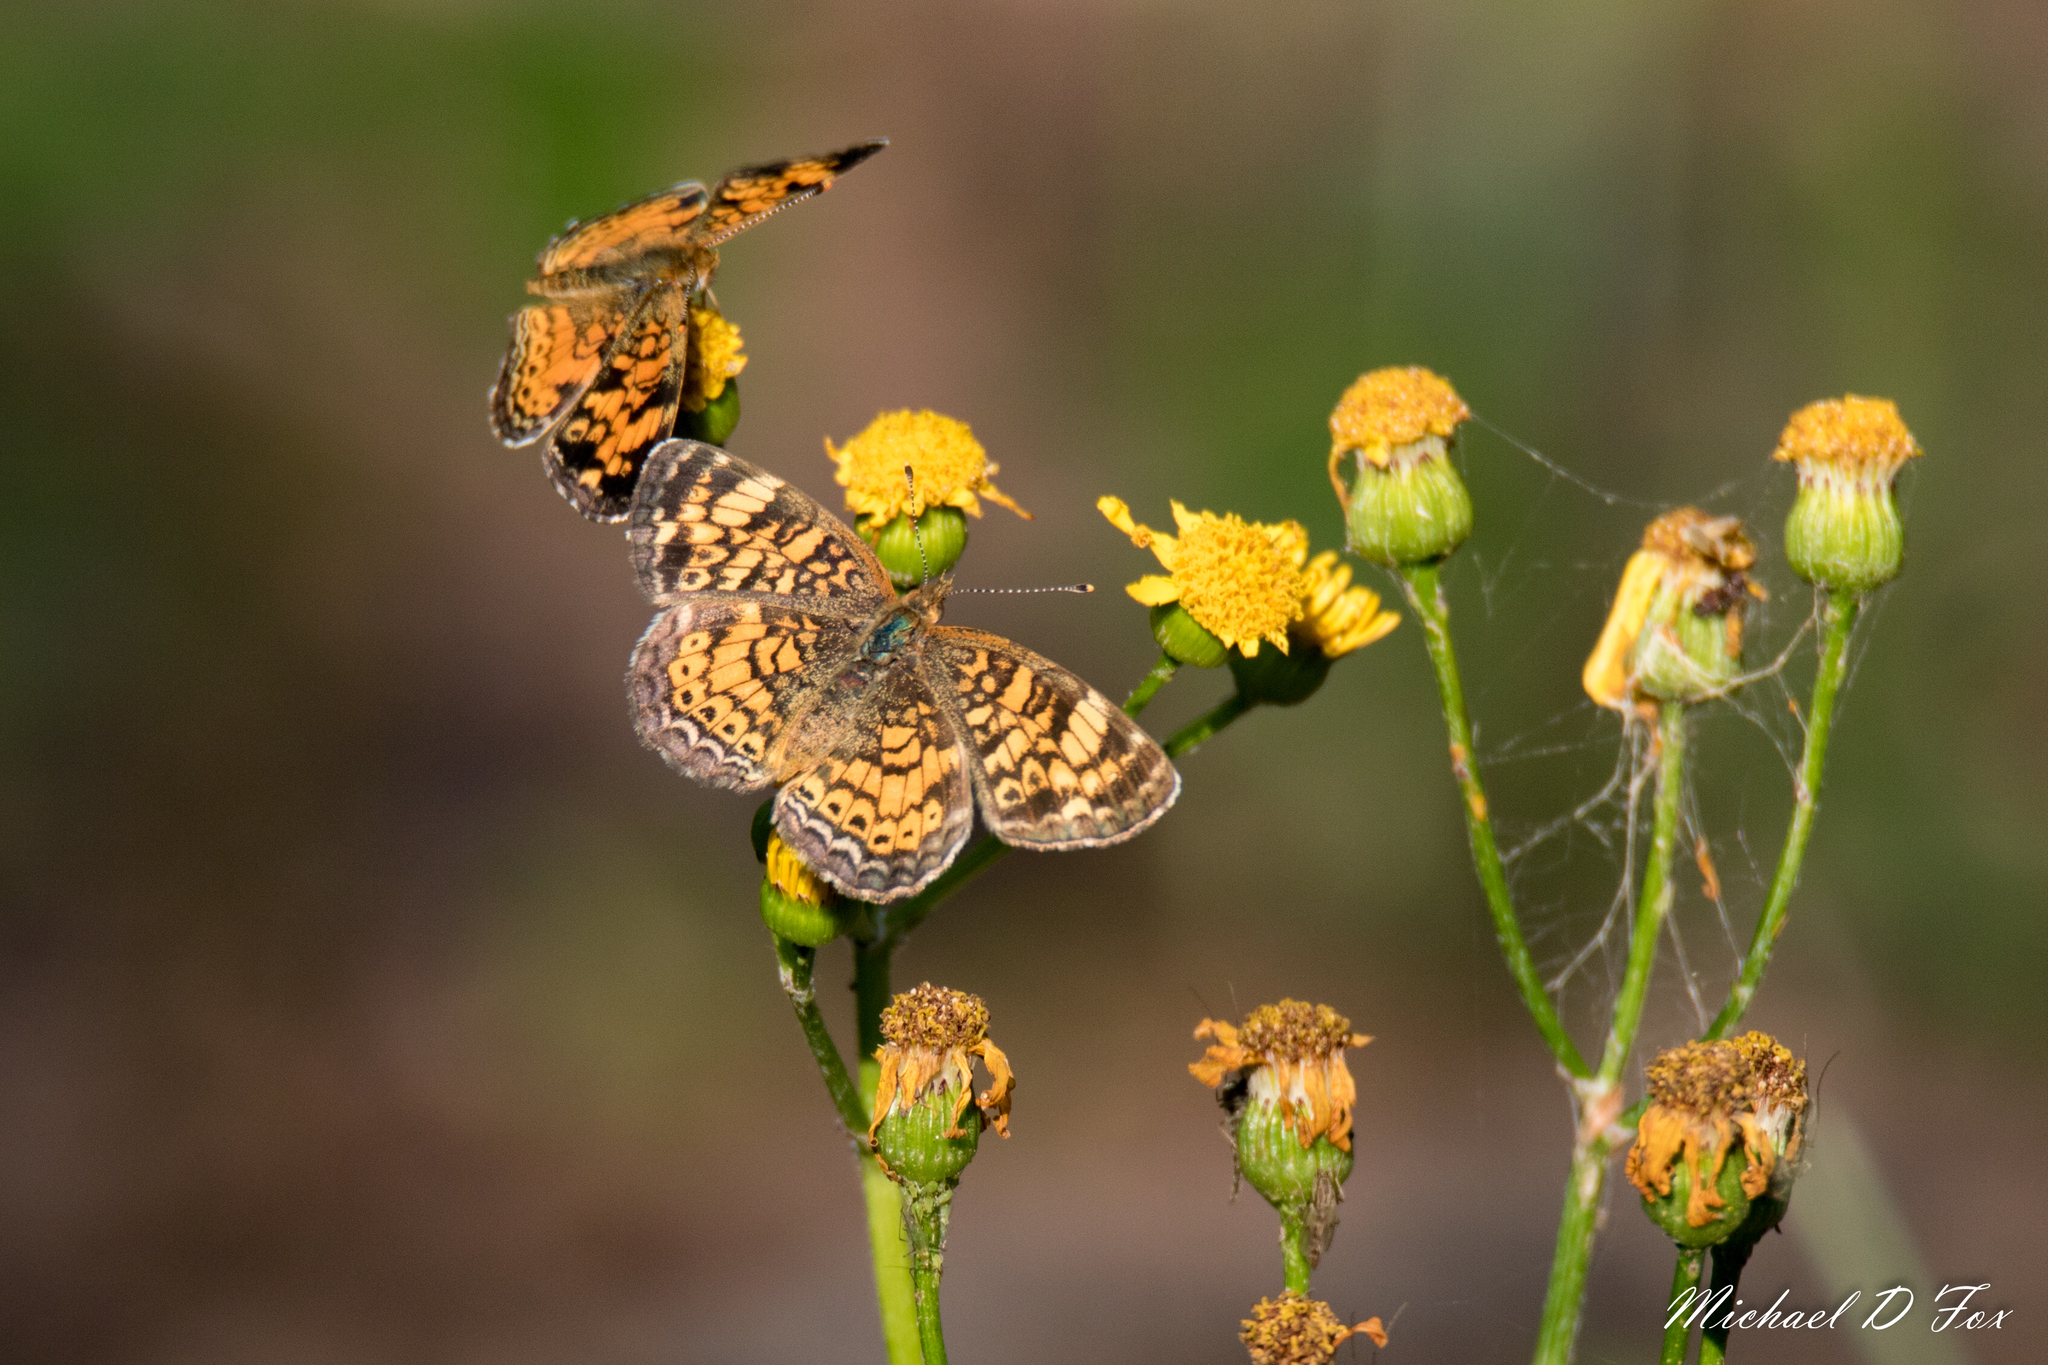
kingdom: Animalia
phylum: Arthropoda
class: Insecta
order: Lepidoptera
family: Nymphalidae
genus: Phyciodes
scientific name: Phyciodes tharos
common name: Pearl crescent
